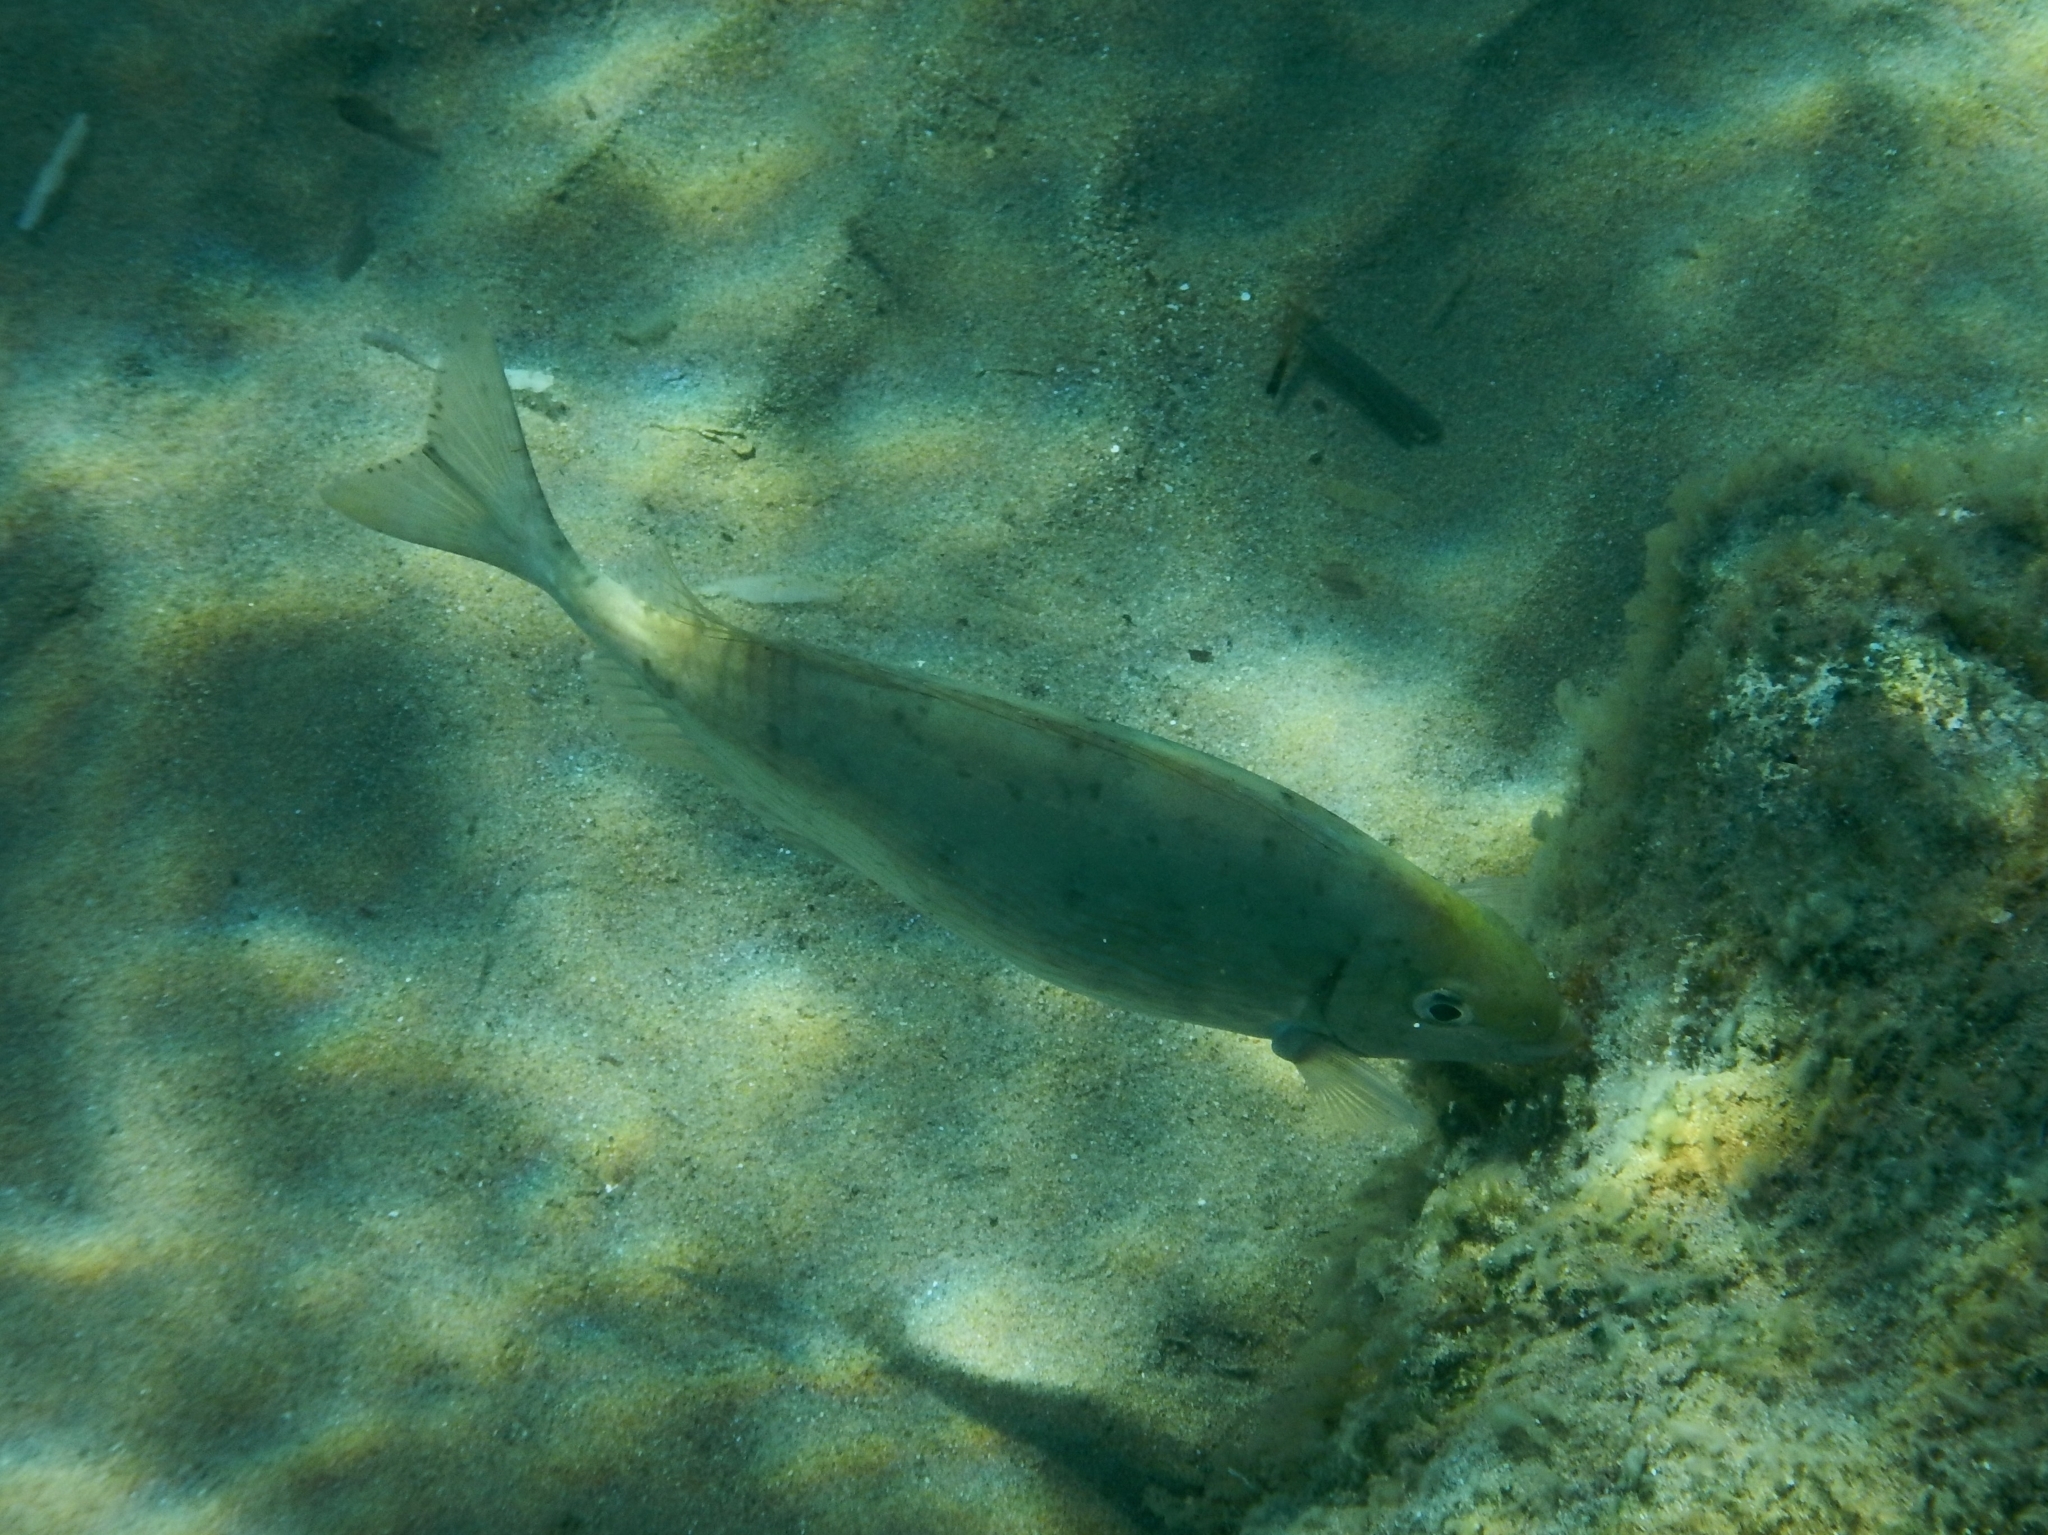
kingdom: Animalia
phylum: Chordata
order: Perciformes
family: Siganidae
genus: Siganus
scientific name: Siganus rivulatus
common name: Marbled spinefoot
